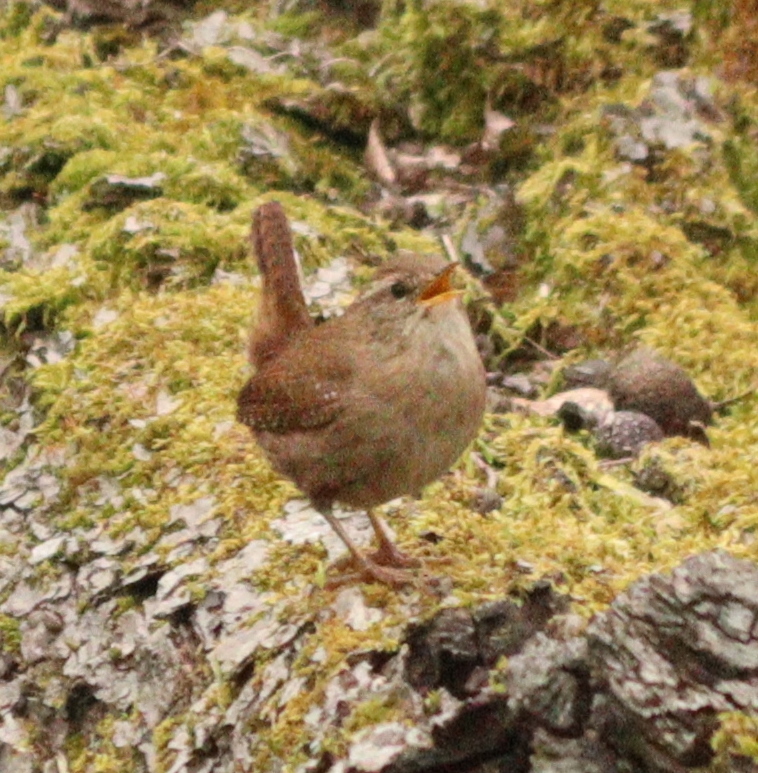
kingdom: Animalia
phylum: Chordata
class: Aves
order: Passeriformes
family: Troglodytidae
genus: Troglodytes
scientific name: Troglodytes troglodytes
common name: Eurasian wren
